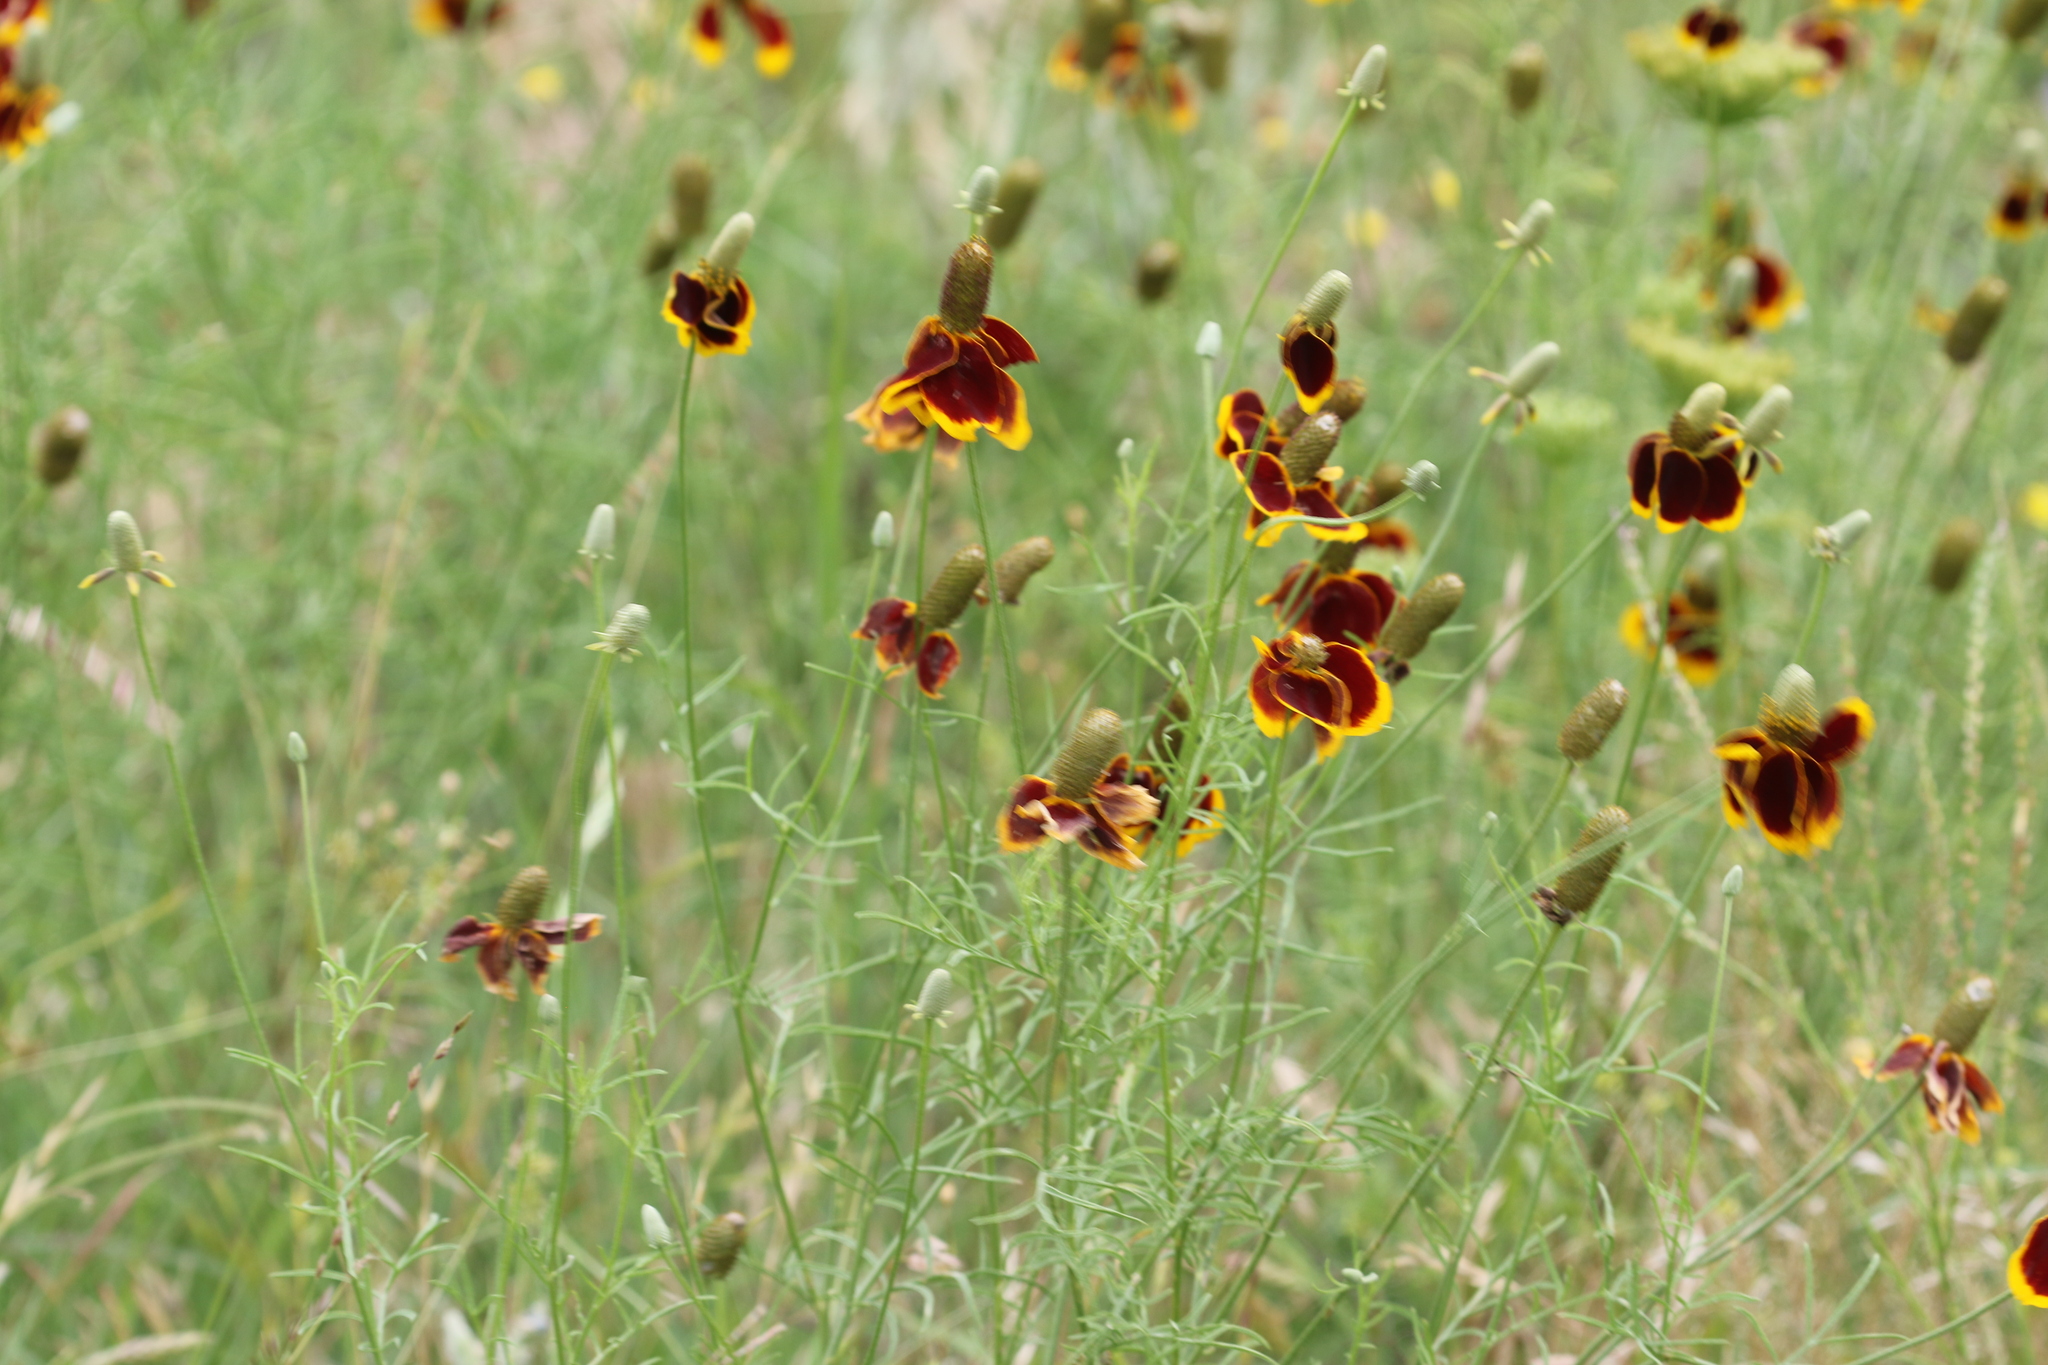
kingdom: Plantae
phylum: Tracheophyta
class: Magnoliopsida
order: Asterales
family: Asteraceae
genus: Ratibida
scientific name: Ratibida columnifera
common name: Prairie coneflower
